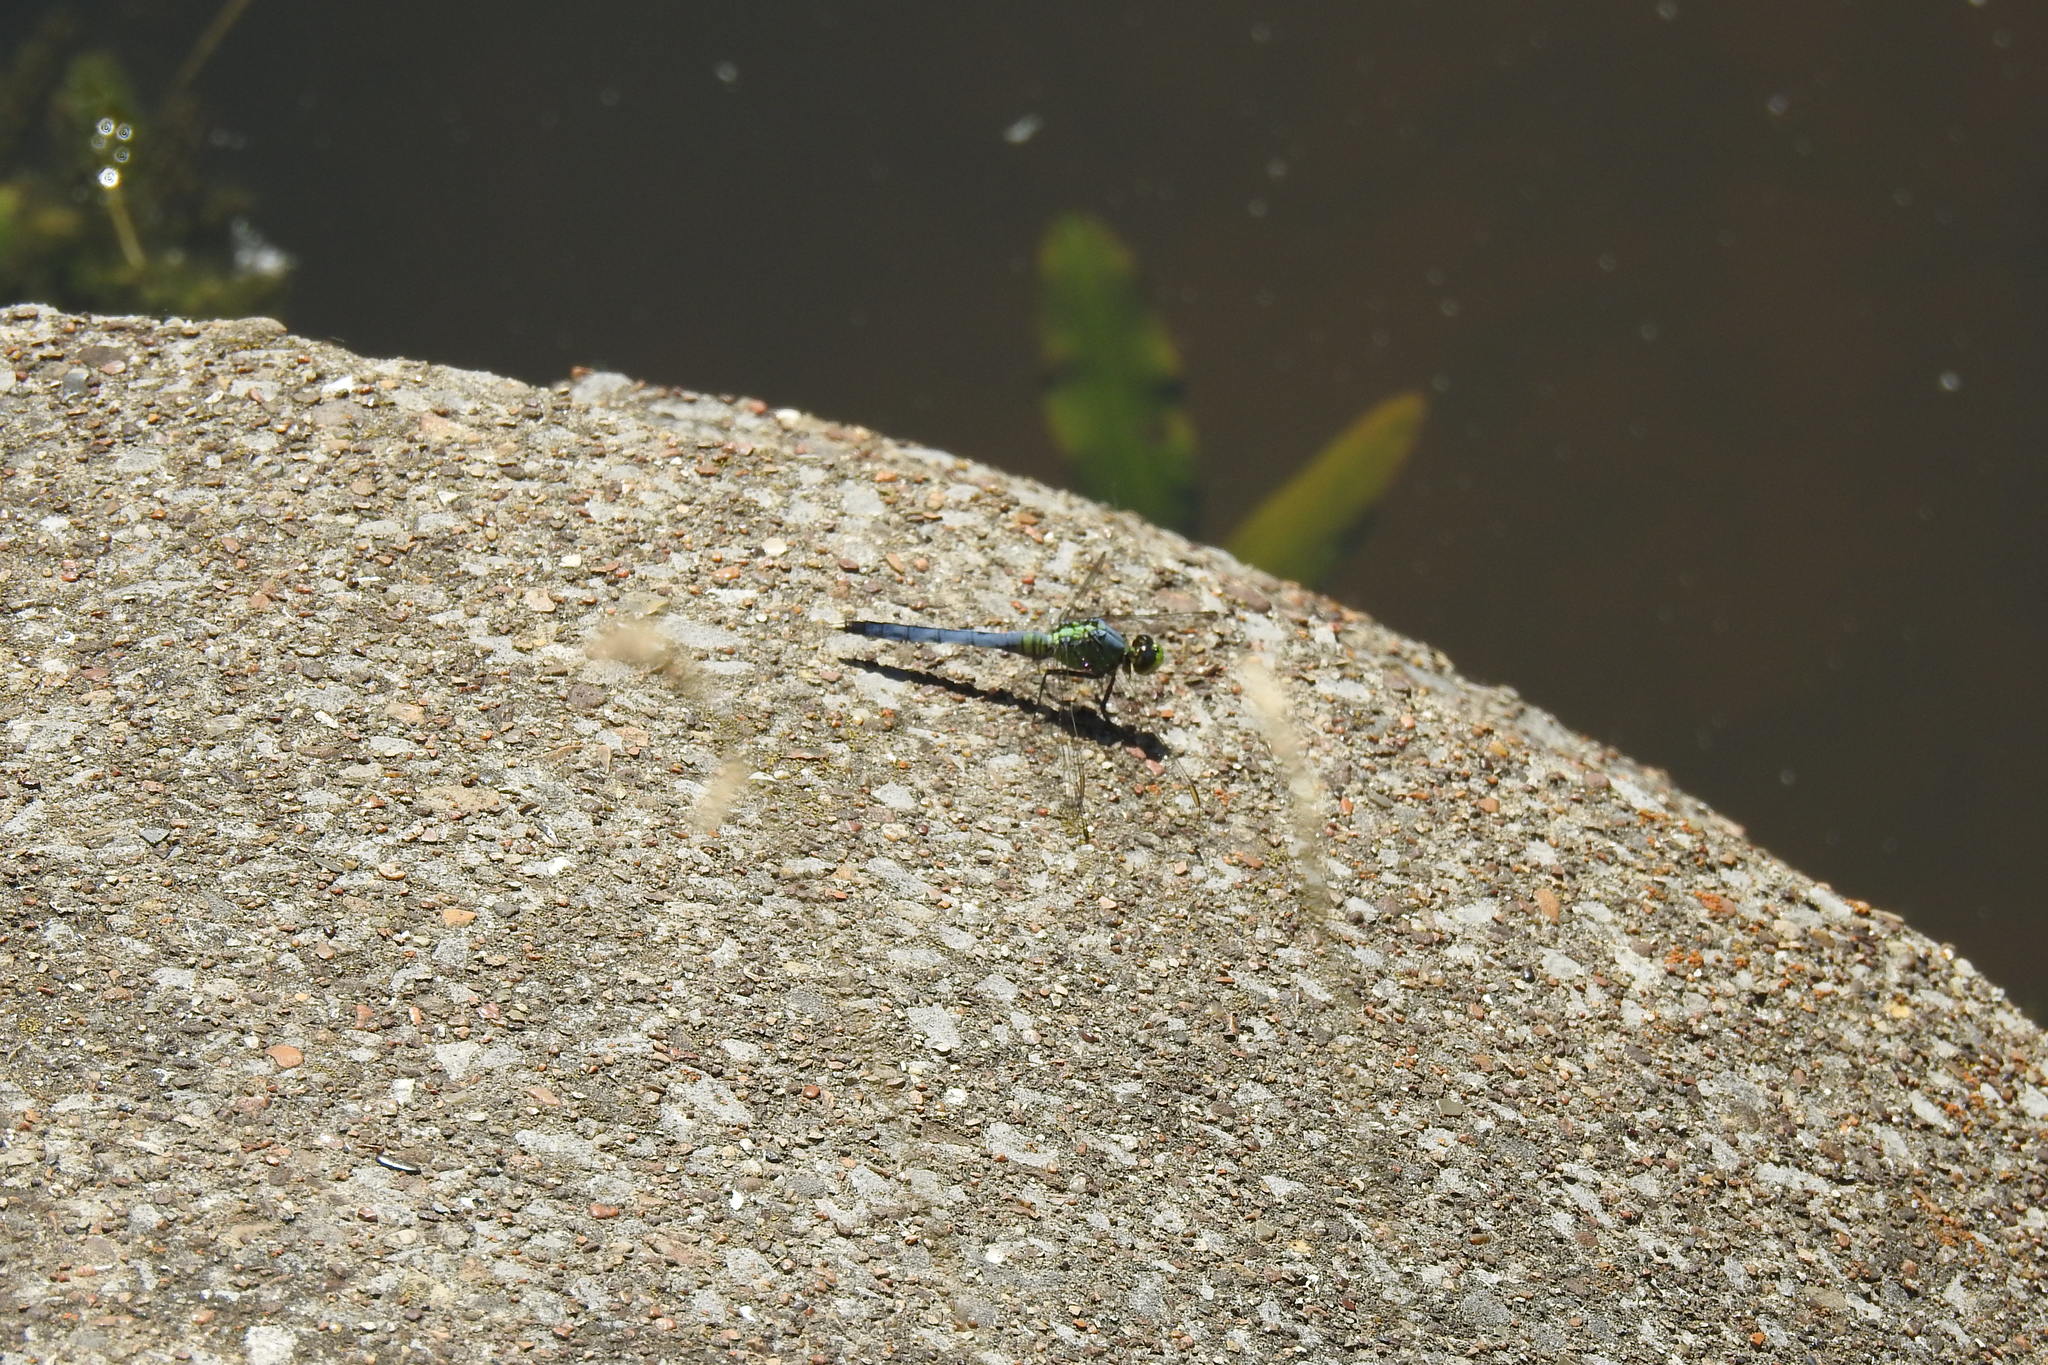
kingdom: Animalia
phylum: Arthropoda
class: Insecta
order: Odonata
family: Libellulidae
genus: Erythemis
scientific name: Erythemis simplicicollis
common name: Eastern pondhawk
